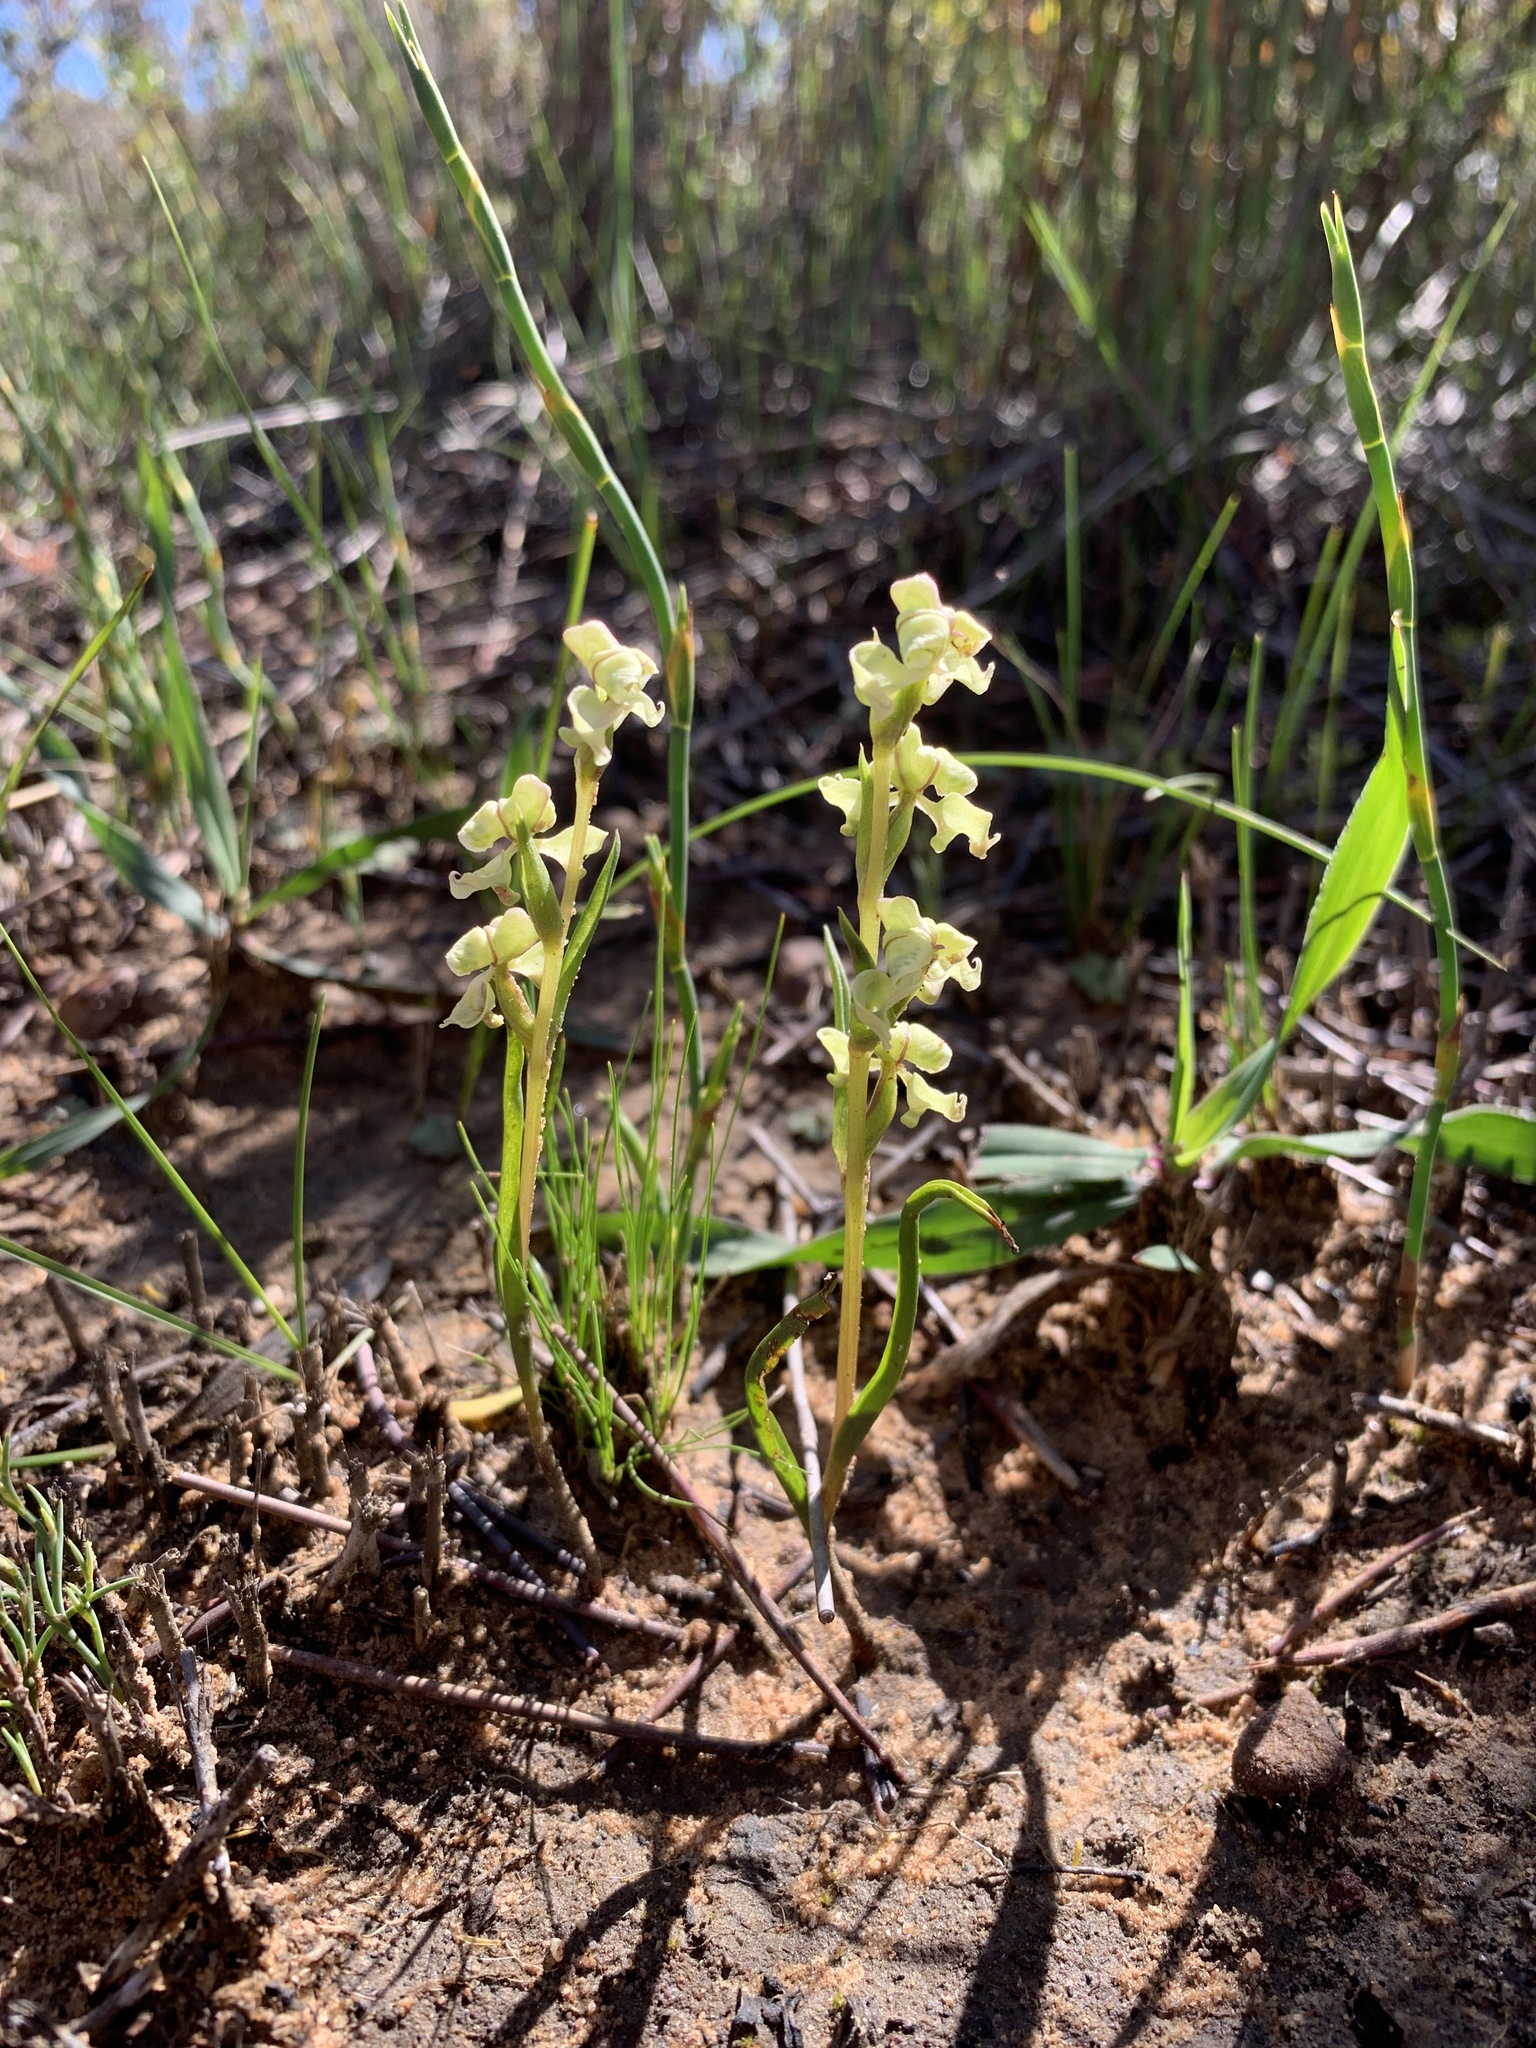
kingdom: Plantae
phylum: Tracheophyta
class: Liliopsida
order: Asparagales
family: Orchidaceae
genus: Disperis
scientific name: Disperis circumflexa
